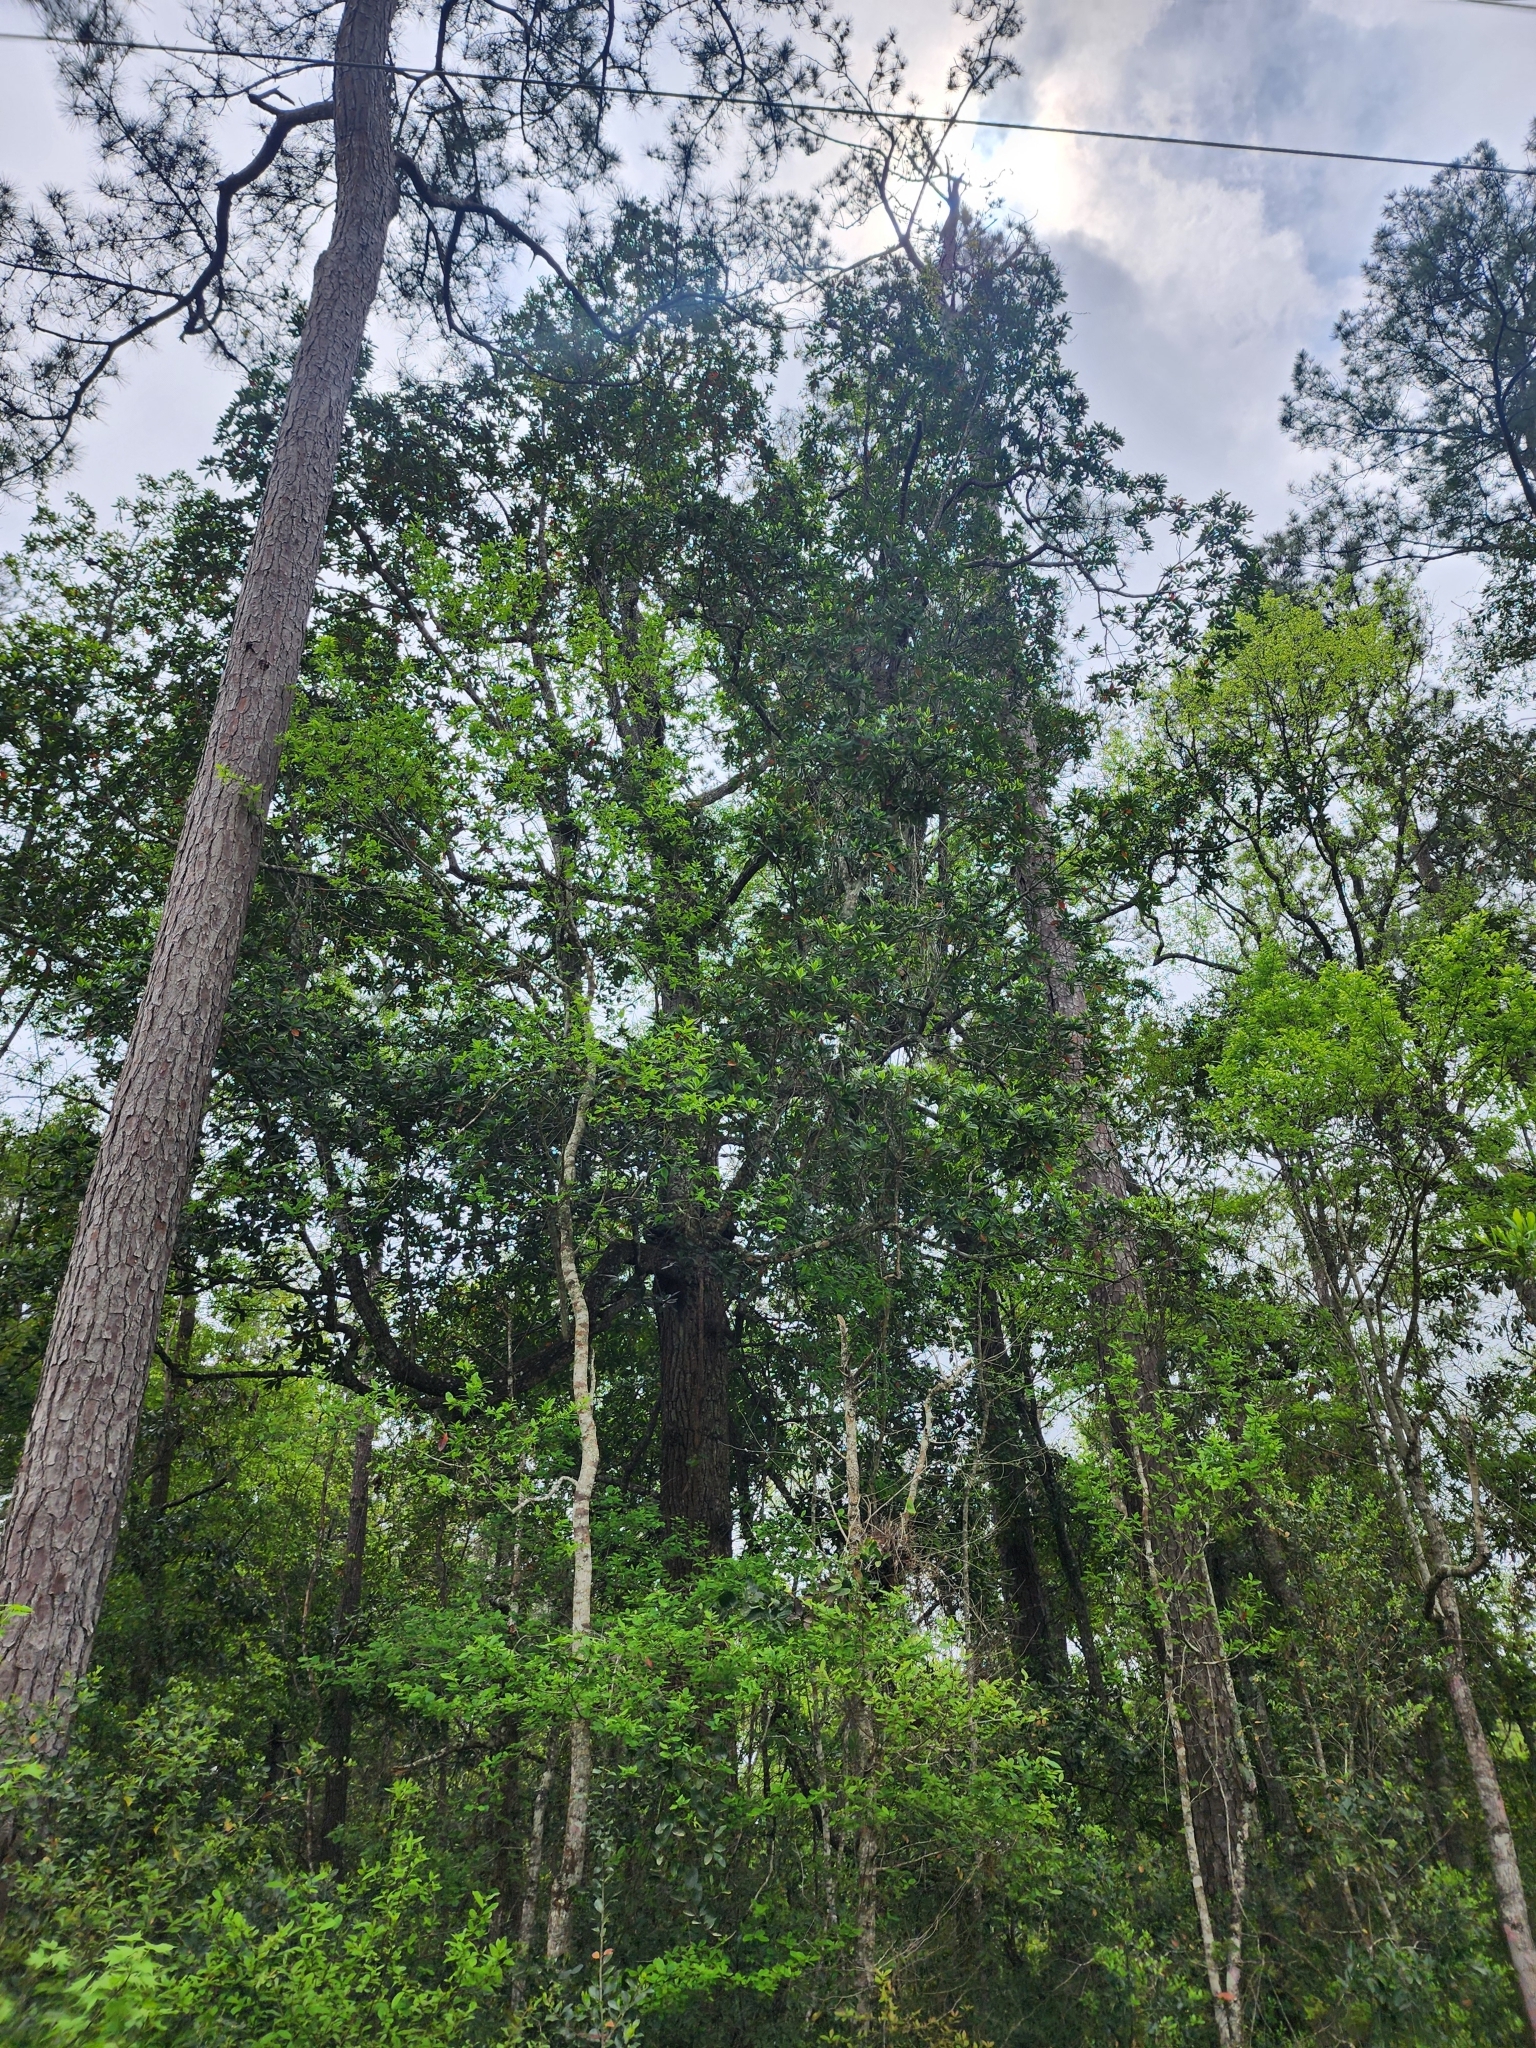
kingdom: Plantae
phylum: Tracheophyta
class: Magnoliopsida
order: Ericales
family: Theaceae
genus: Gordonia
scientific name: Gordonia lasianthus
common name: Loblolly bay
